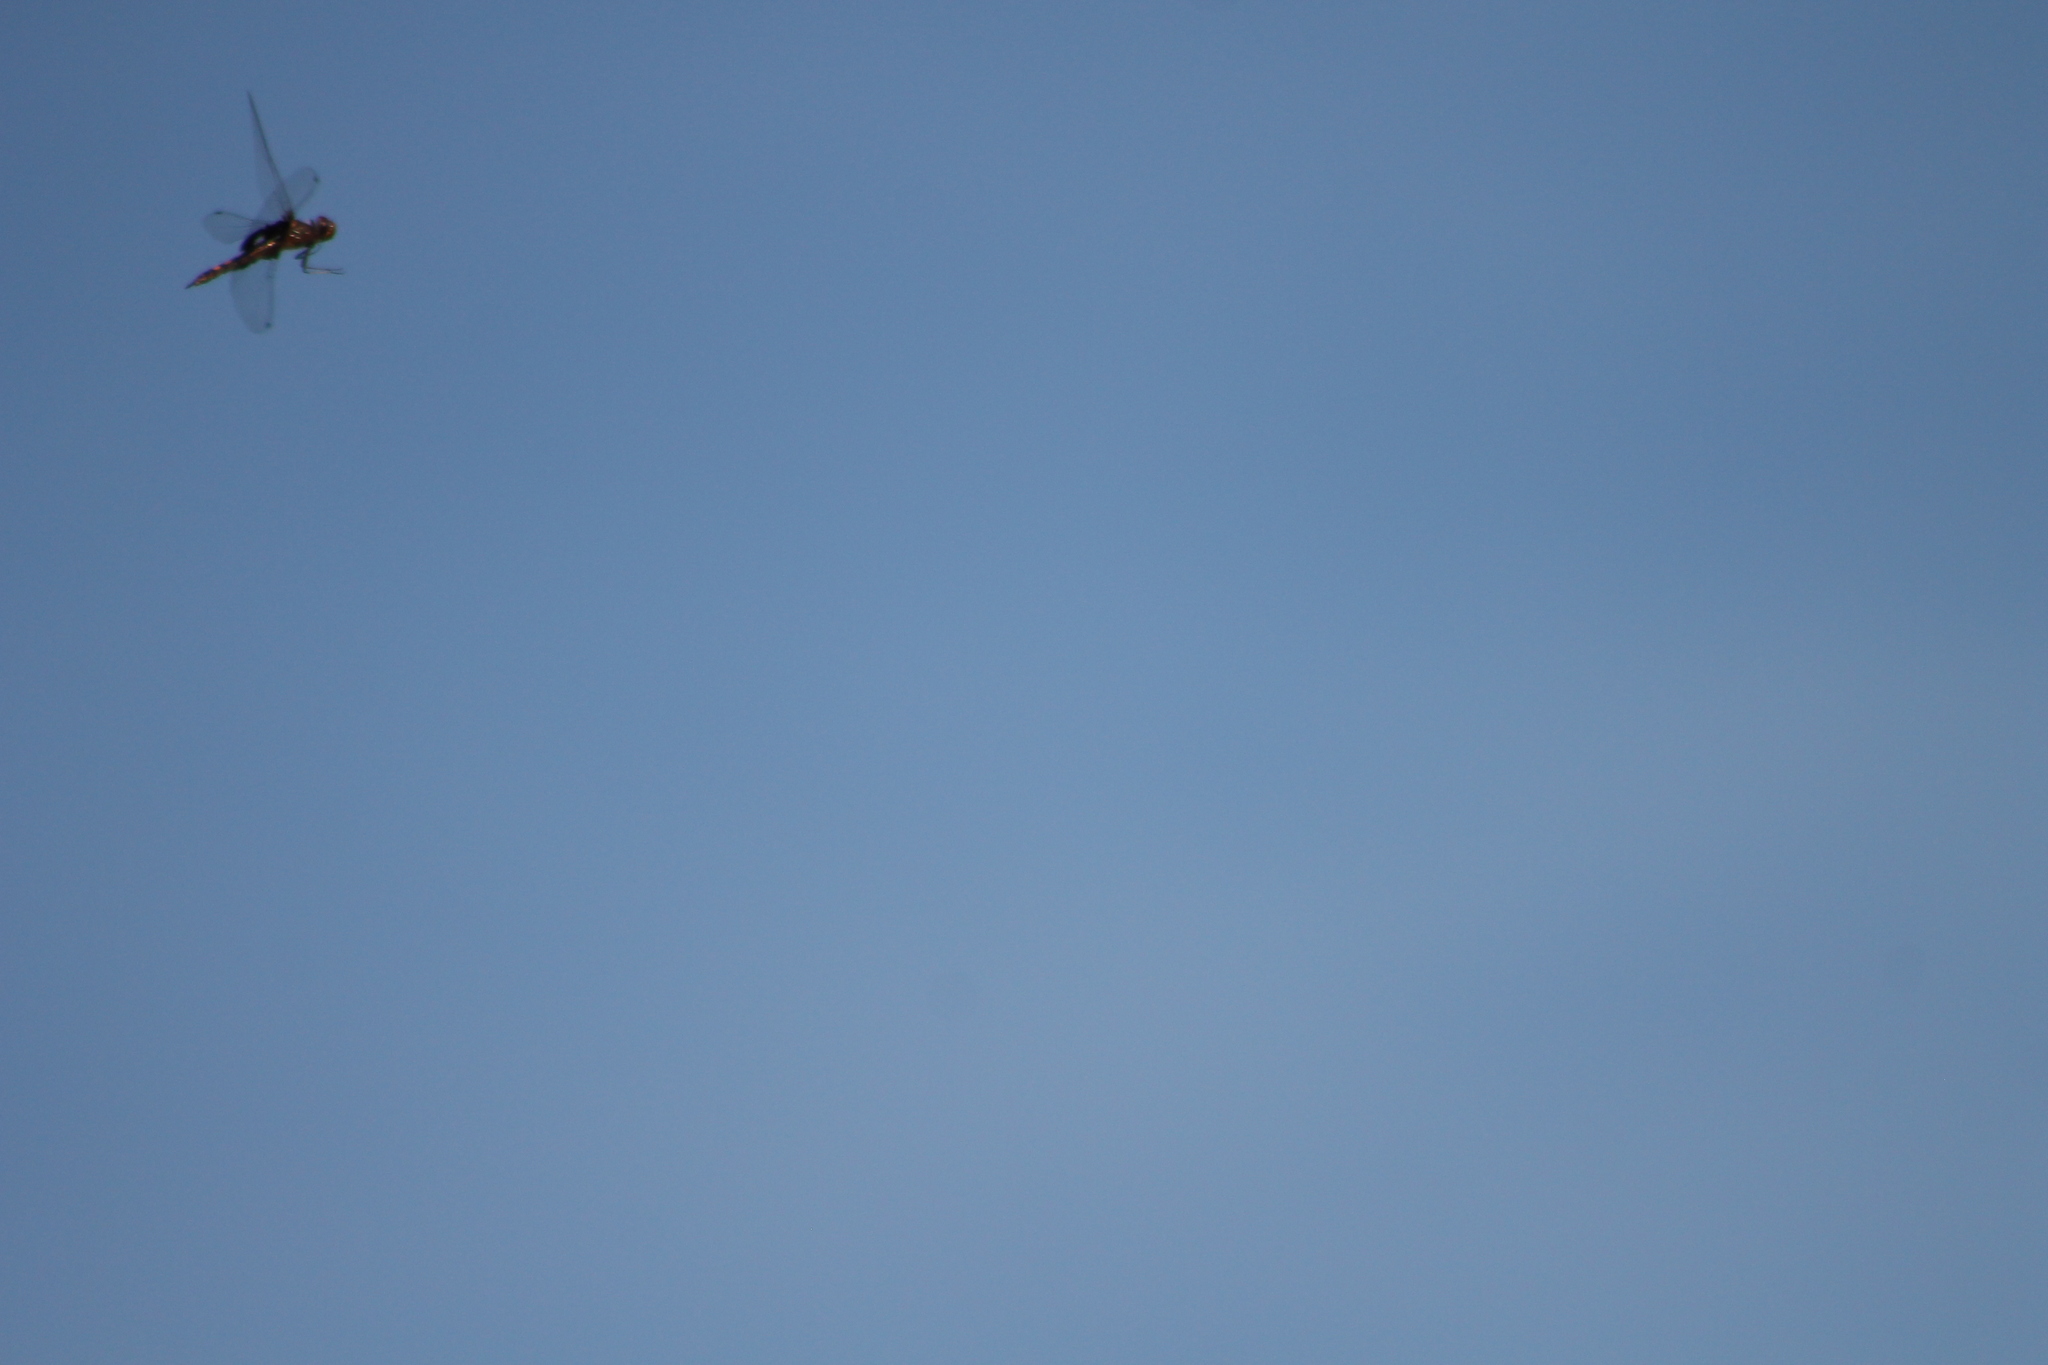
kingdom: Animalia
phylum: Arthropoda
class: Insecta
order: Odonata
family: Libellulidae
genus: Tramea
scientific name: Tramea lacerata
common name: Black saddlebags
